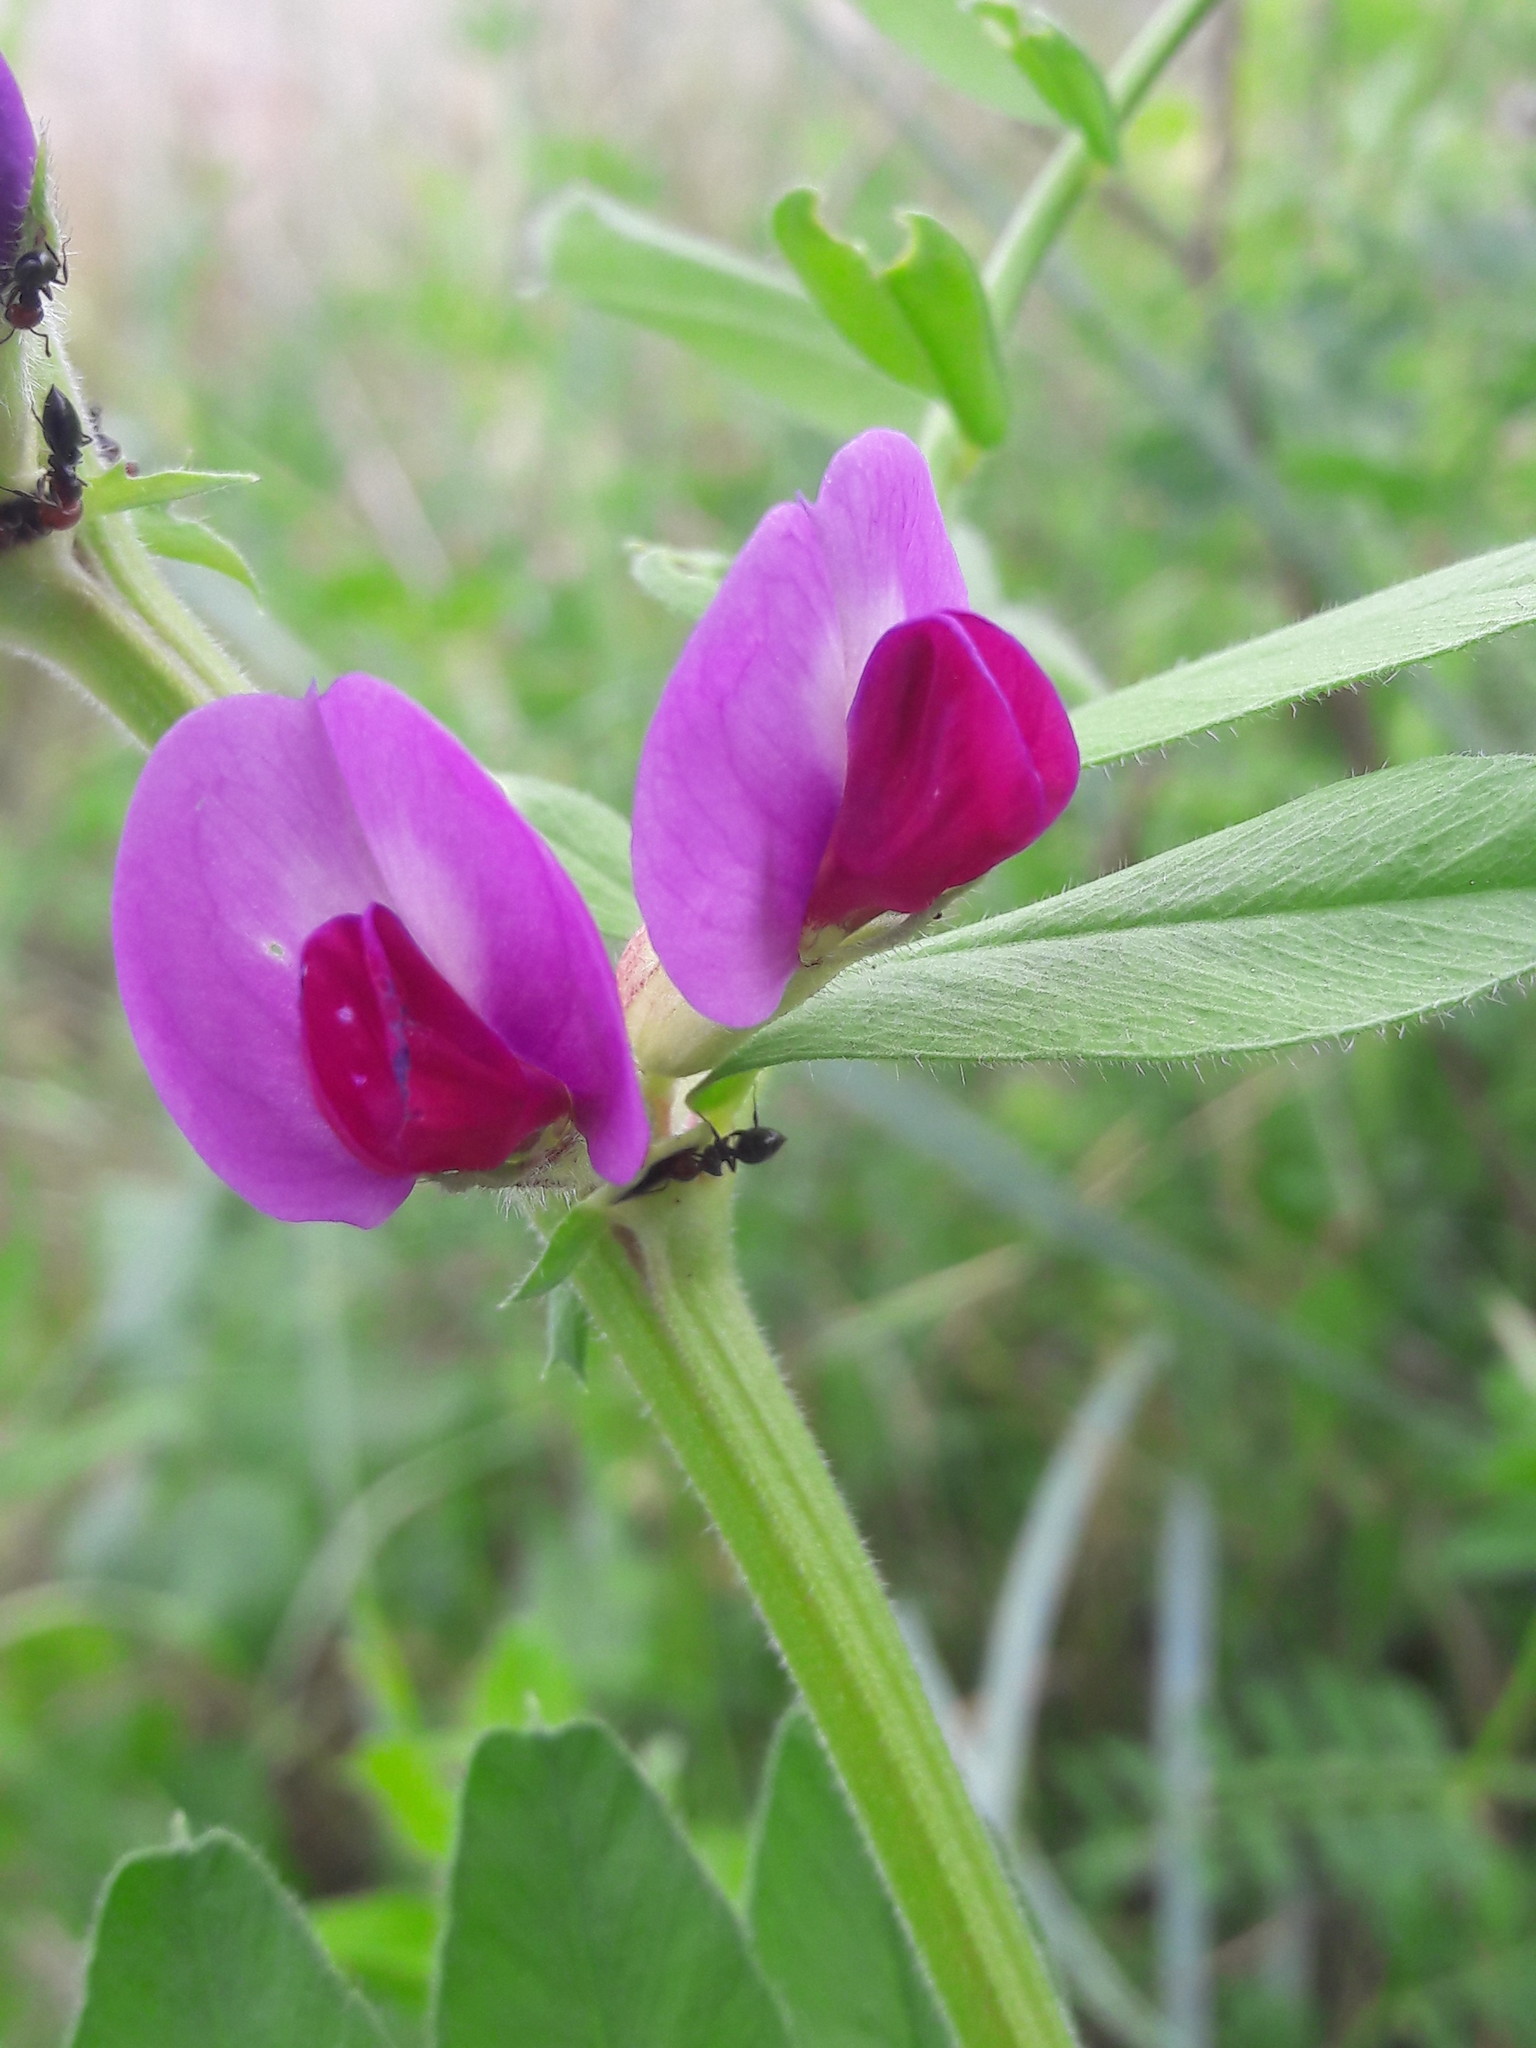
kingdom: Plantae
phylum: Tracheophyta
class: Magnoliopsida
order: Fabales
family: Fabaceae
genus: Vicia
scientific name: Vicia sativa
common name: Garden vetch
